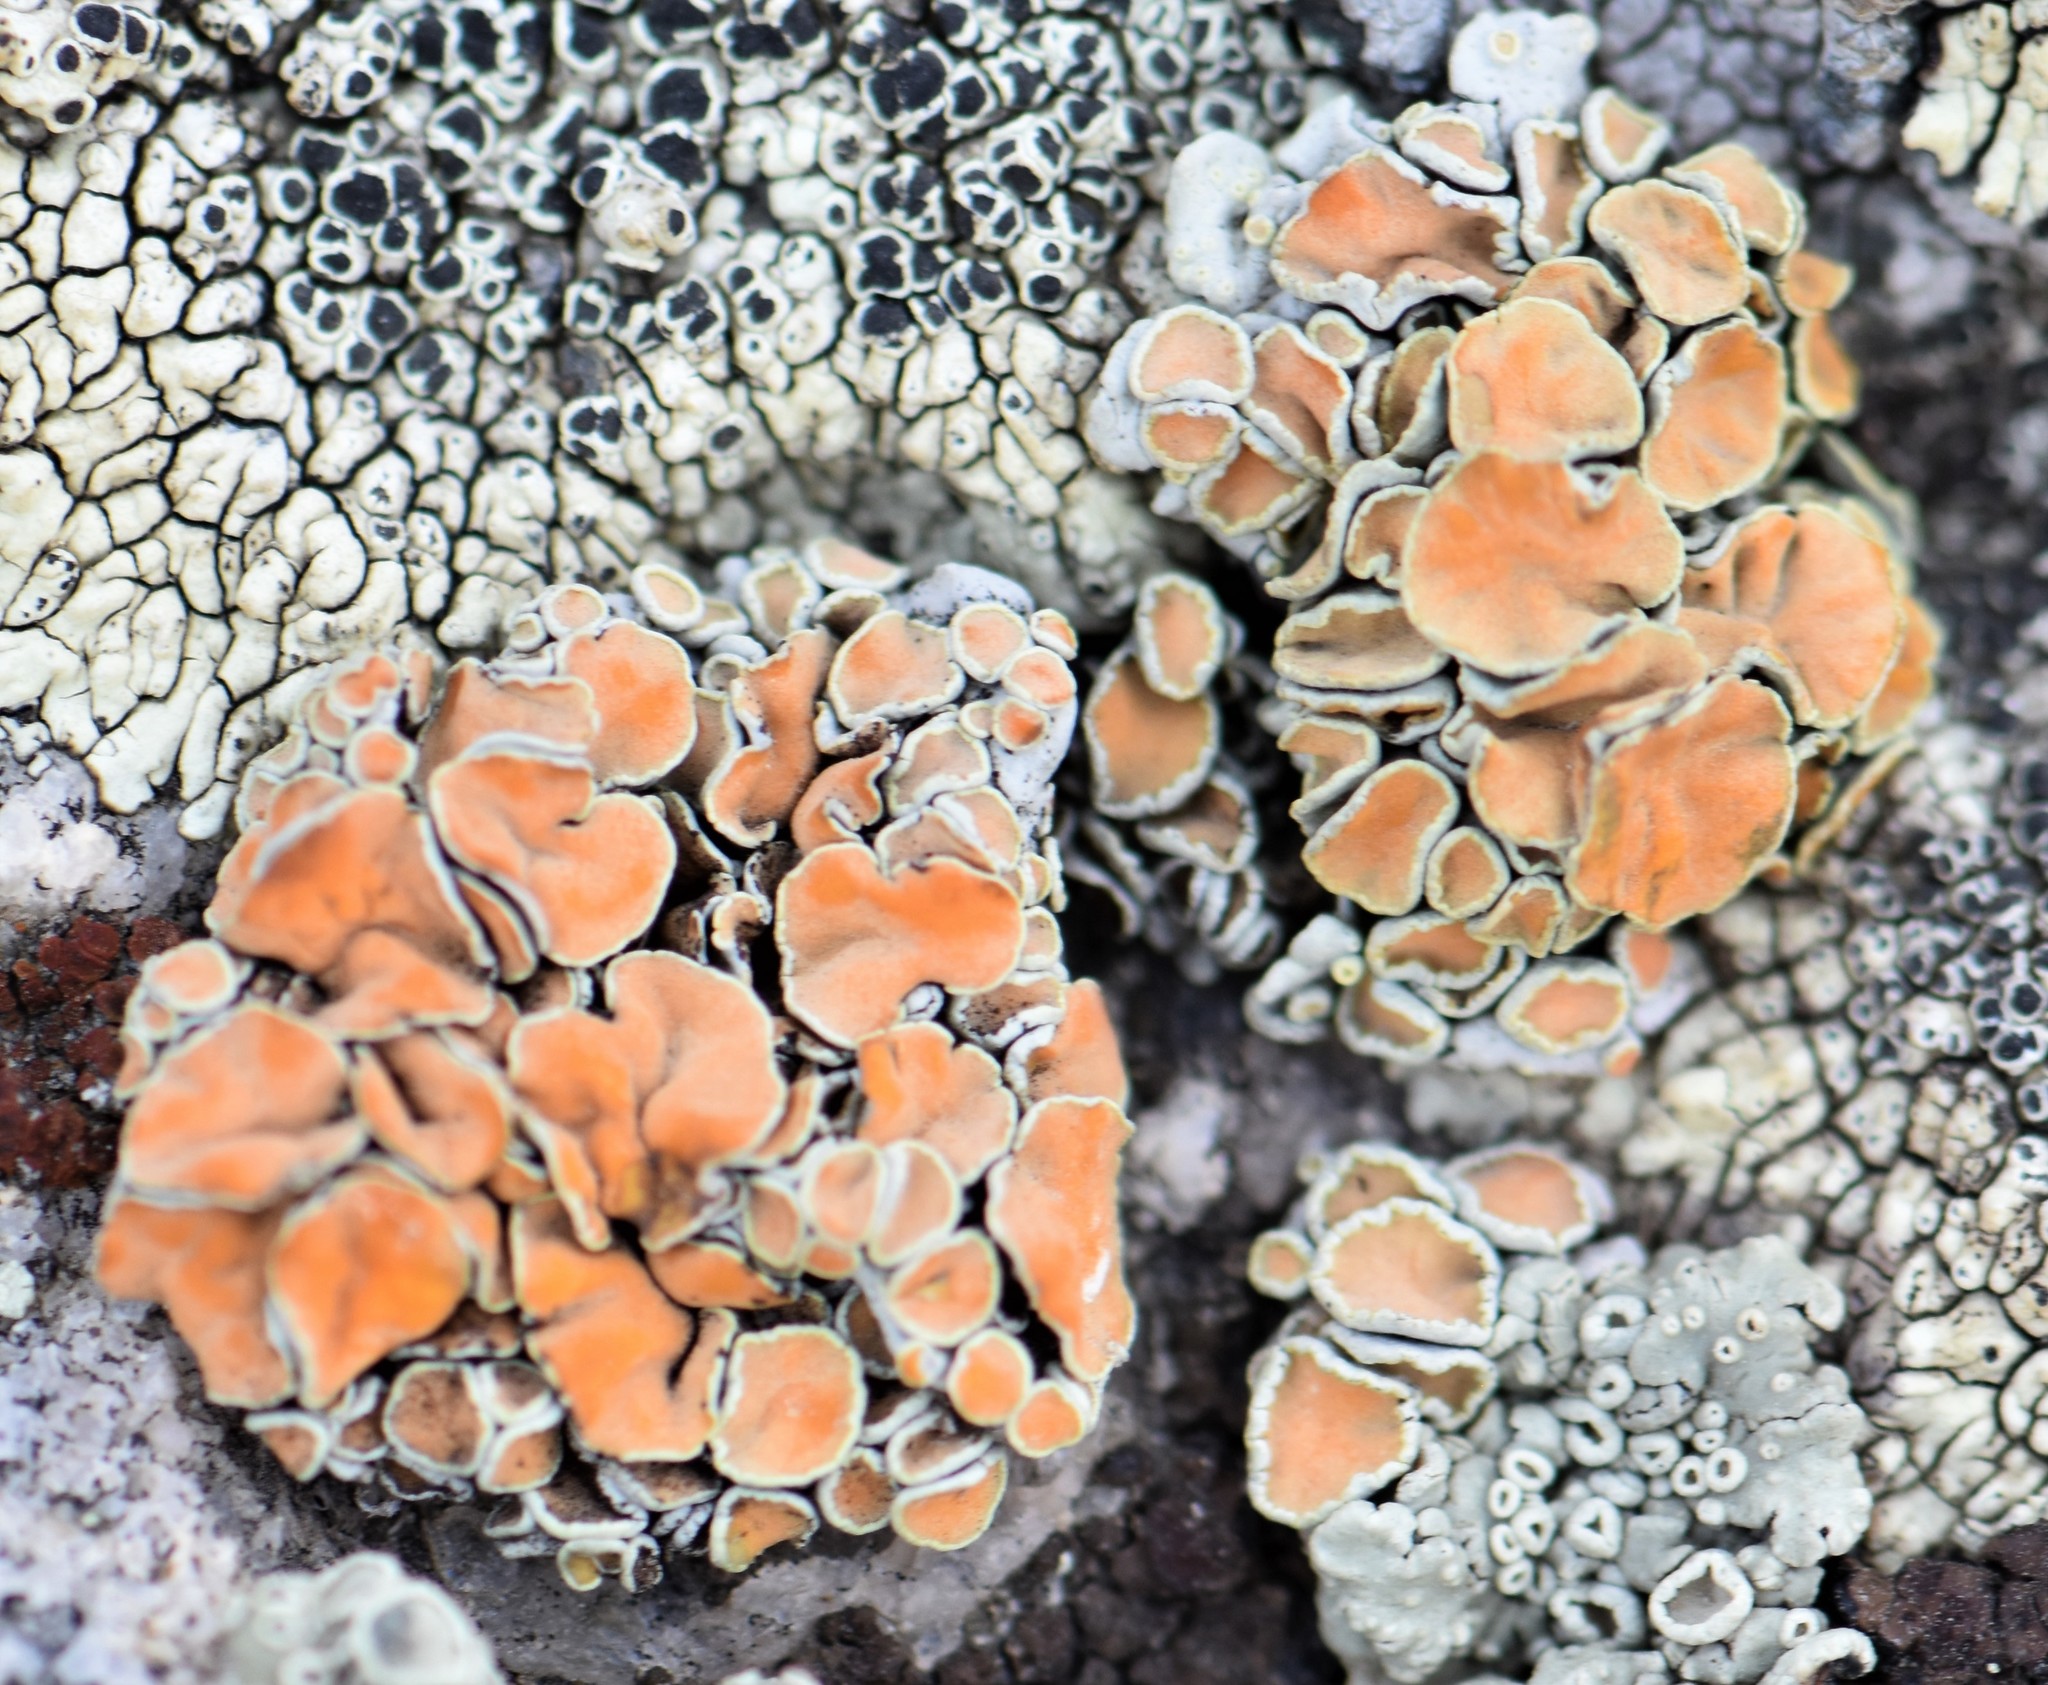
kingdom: Fungi
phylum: Ascomycota
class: Lecanoromycetes
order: Lecanorales
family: Lecanoraceae
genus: Omphalodina
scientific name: Omphalodina chrysoleuca
